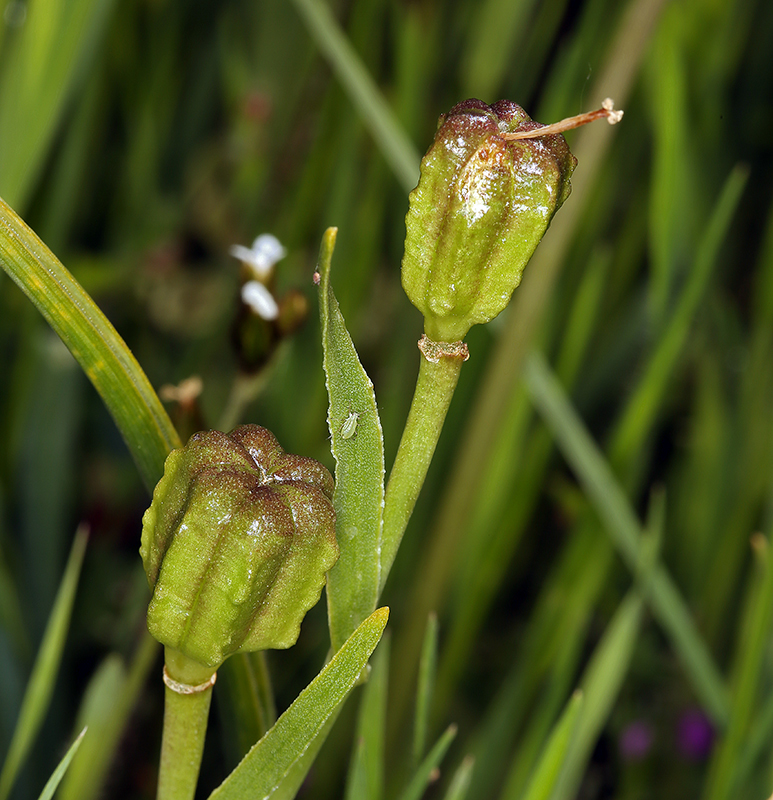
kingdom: Plantae
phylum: Tracheophyta
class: Liliopsida
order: Liliales
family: Liliaceae
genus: Fritillaria
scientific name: Fritillaria striata
